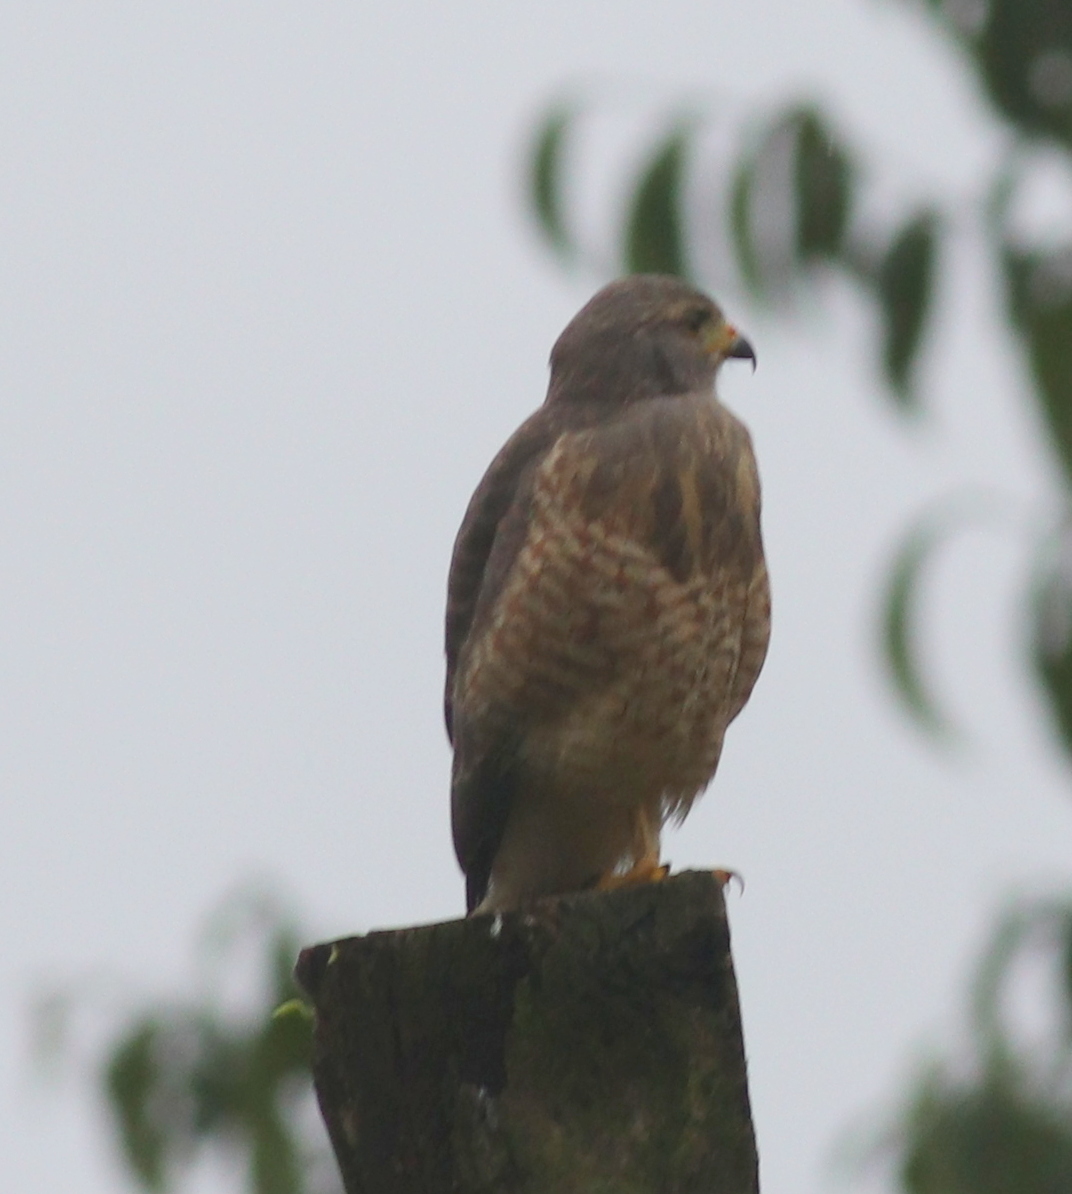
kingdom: Animalia
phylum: Chordata
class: Aves
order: Accipitriformes
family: Accipitridae
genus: Rupornis
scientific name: Rupornis magnirostris
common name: Roadside hawk
